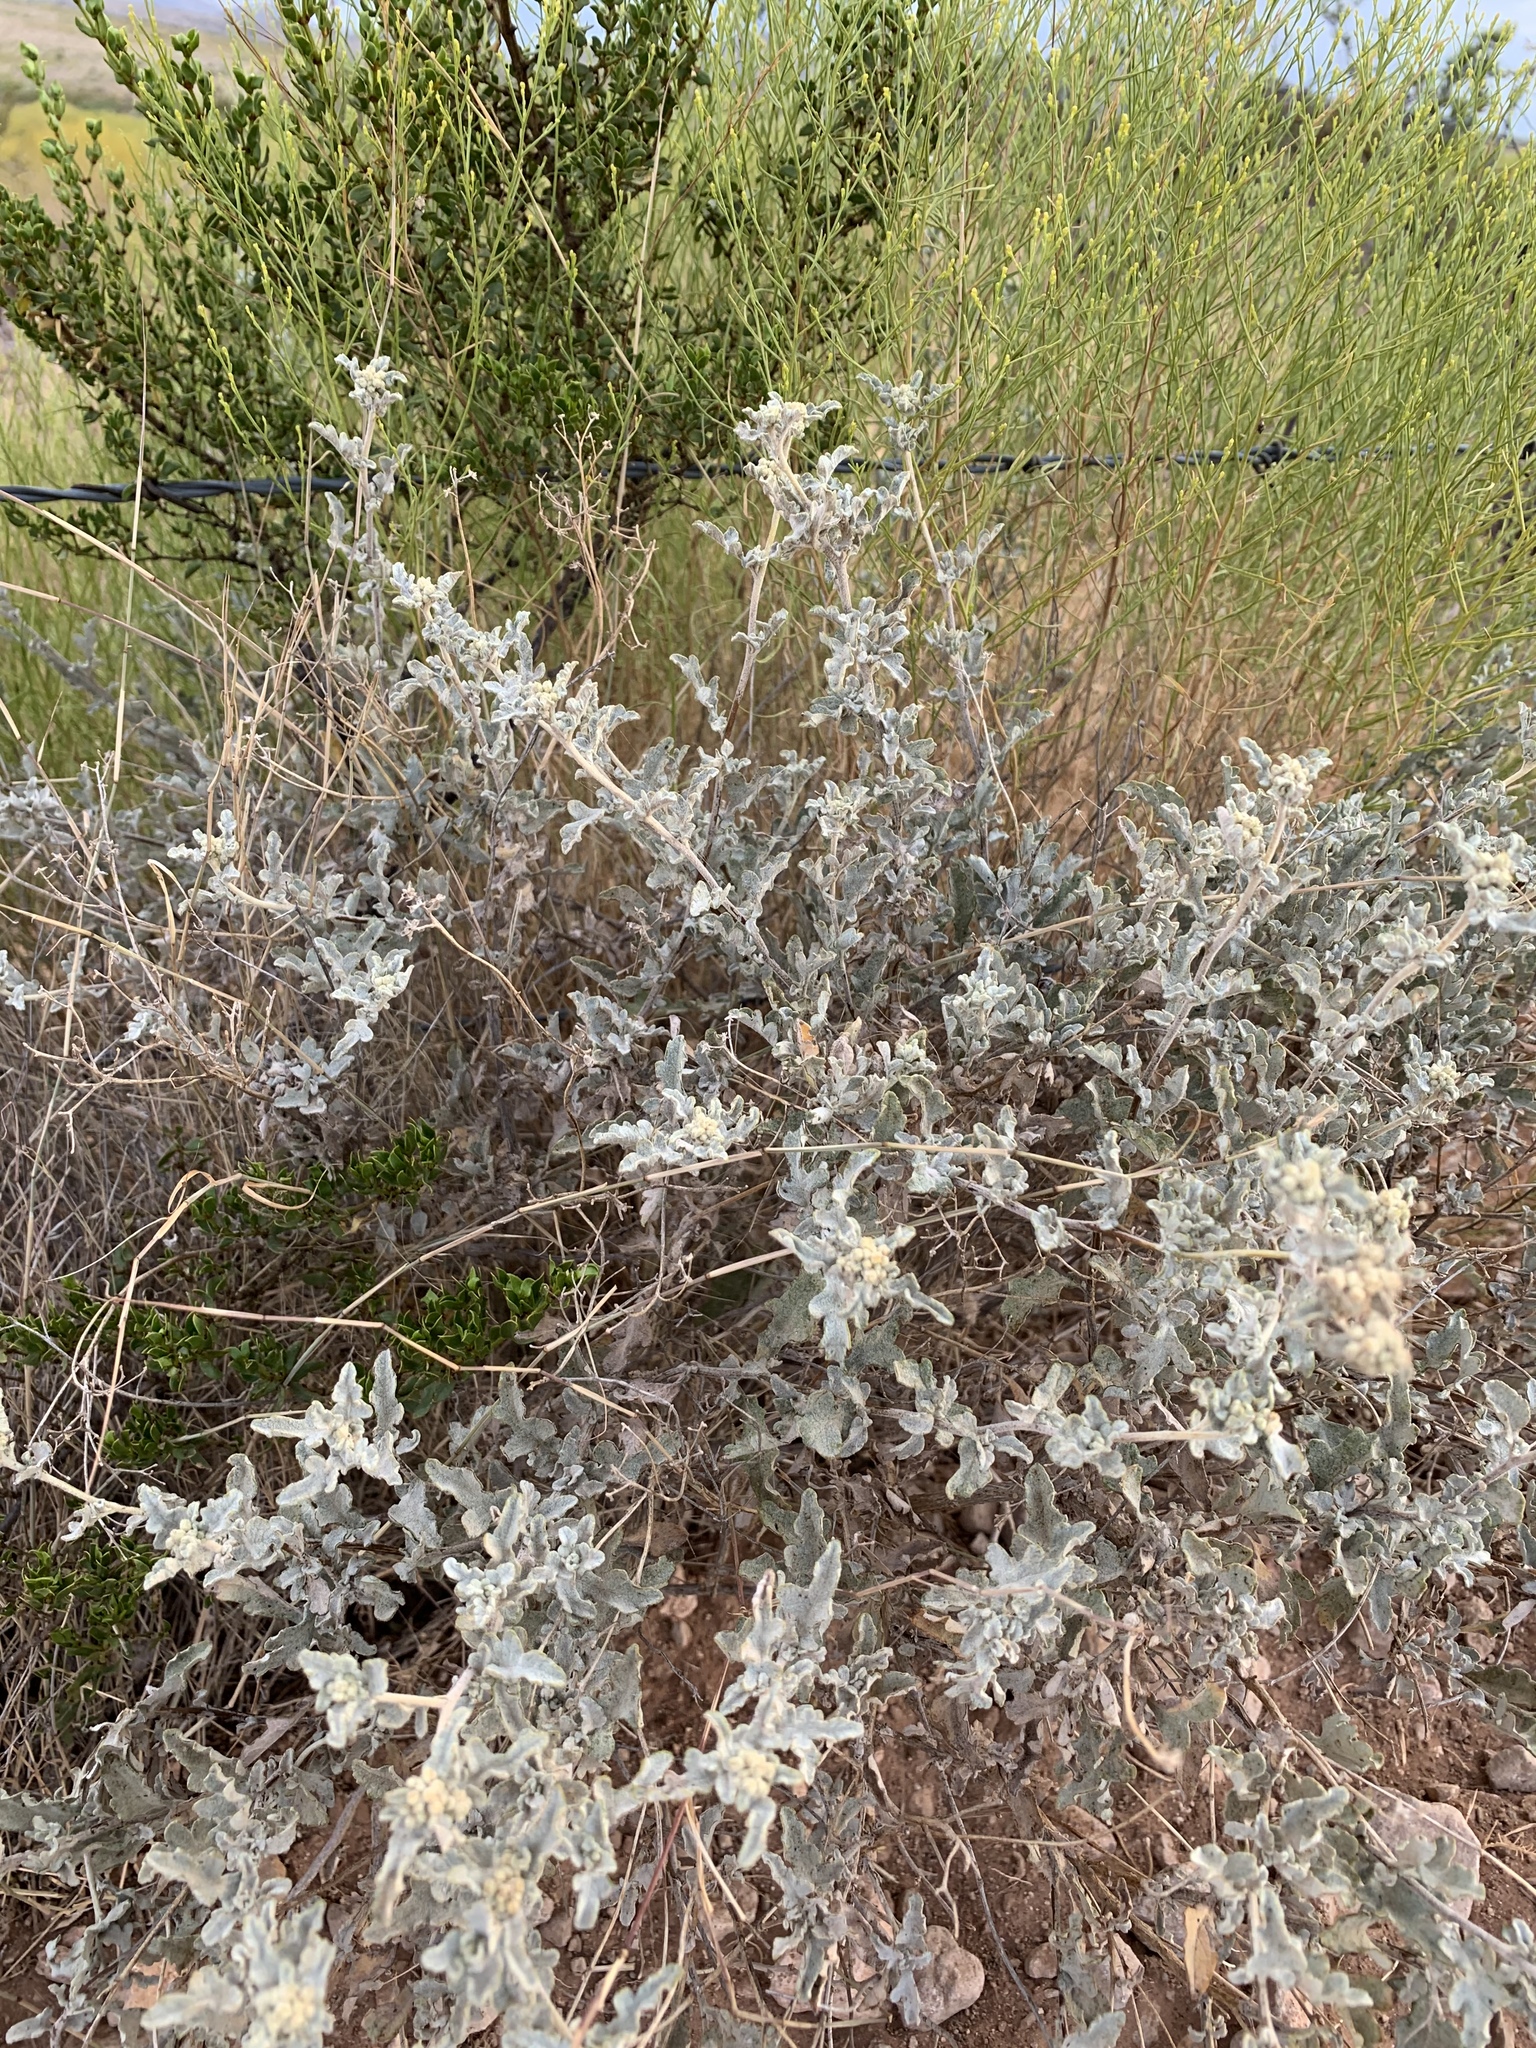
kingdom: Plantae
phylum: Tracheophyta
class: Magnoliopsida
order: Asterales
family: Asteraceae
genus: Parthenium
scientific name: Parthenium incanum
